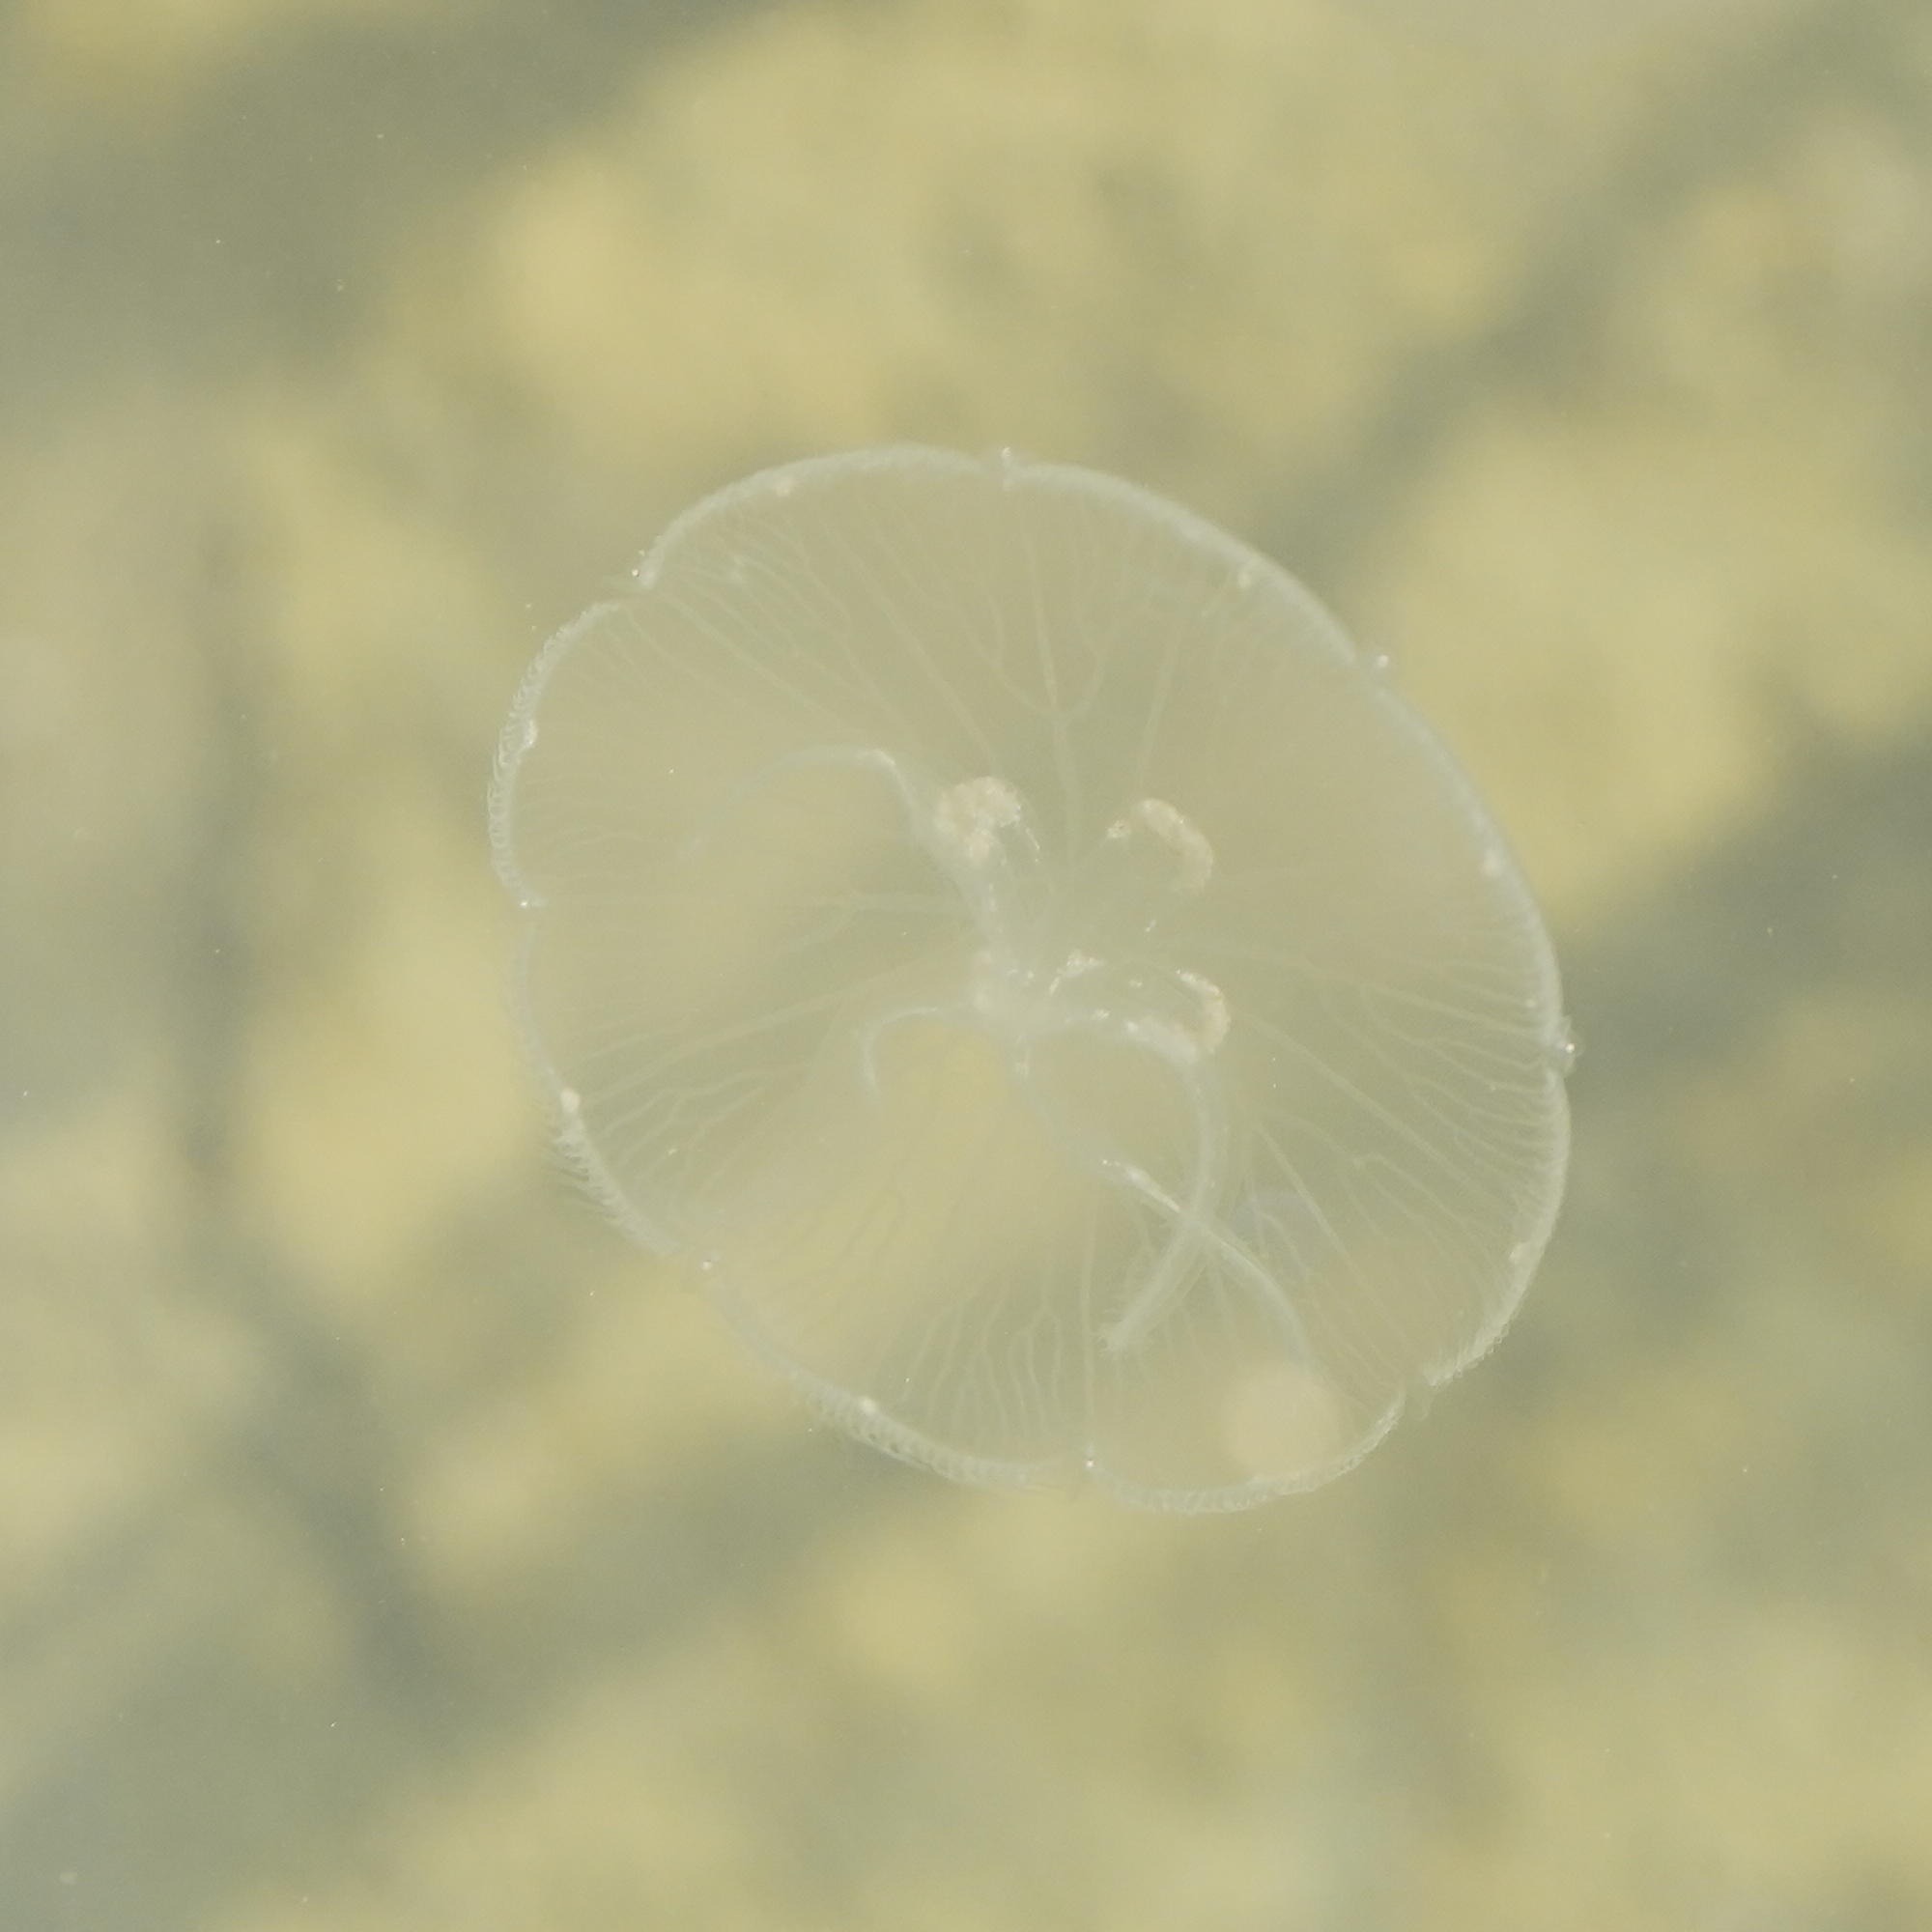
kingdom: Animalia
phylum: Cnidaria
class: Scyphozoa
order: Semaeostomeae
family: Ulmaridae
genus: Aurelia
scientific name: Aurelia labiata
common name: Pacific moon jelly
